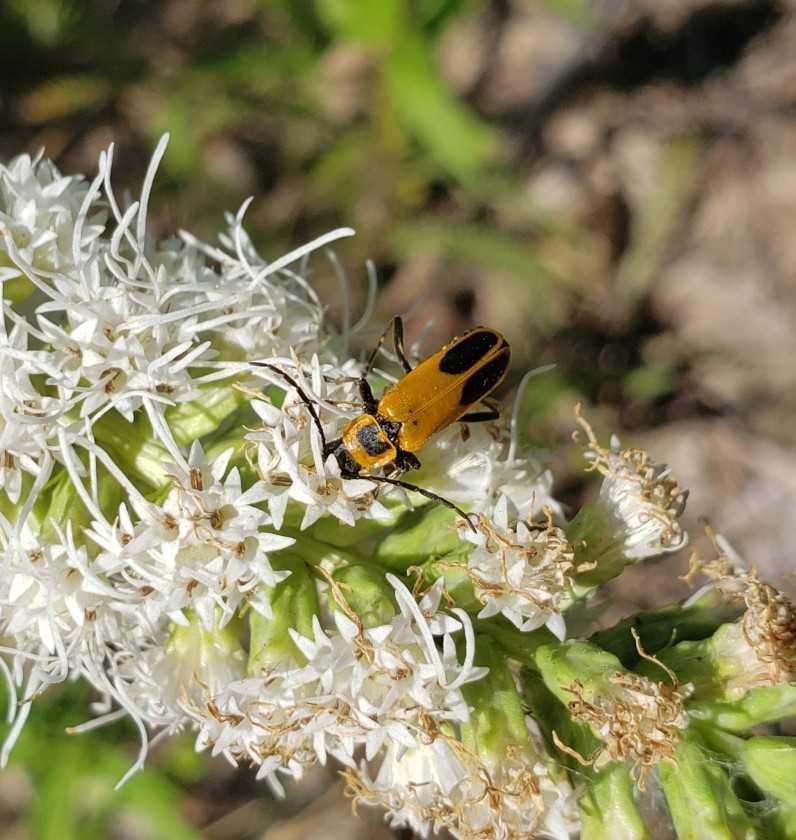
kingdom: Animalia
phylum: Arthropoda
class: Insecta
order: Coleoptera
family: Cantharidae
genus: Chauliognathus
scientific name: Chauliognathus pensylvanicus
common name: Goldenrod soldier beetle
